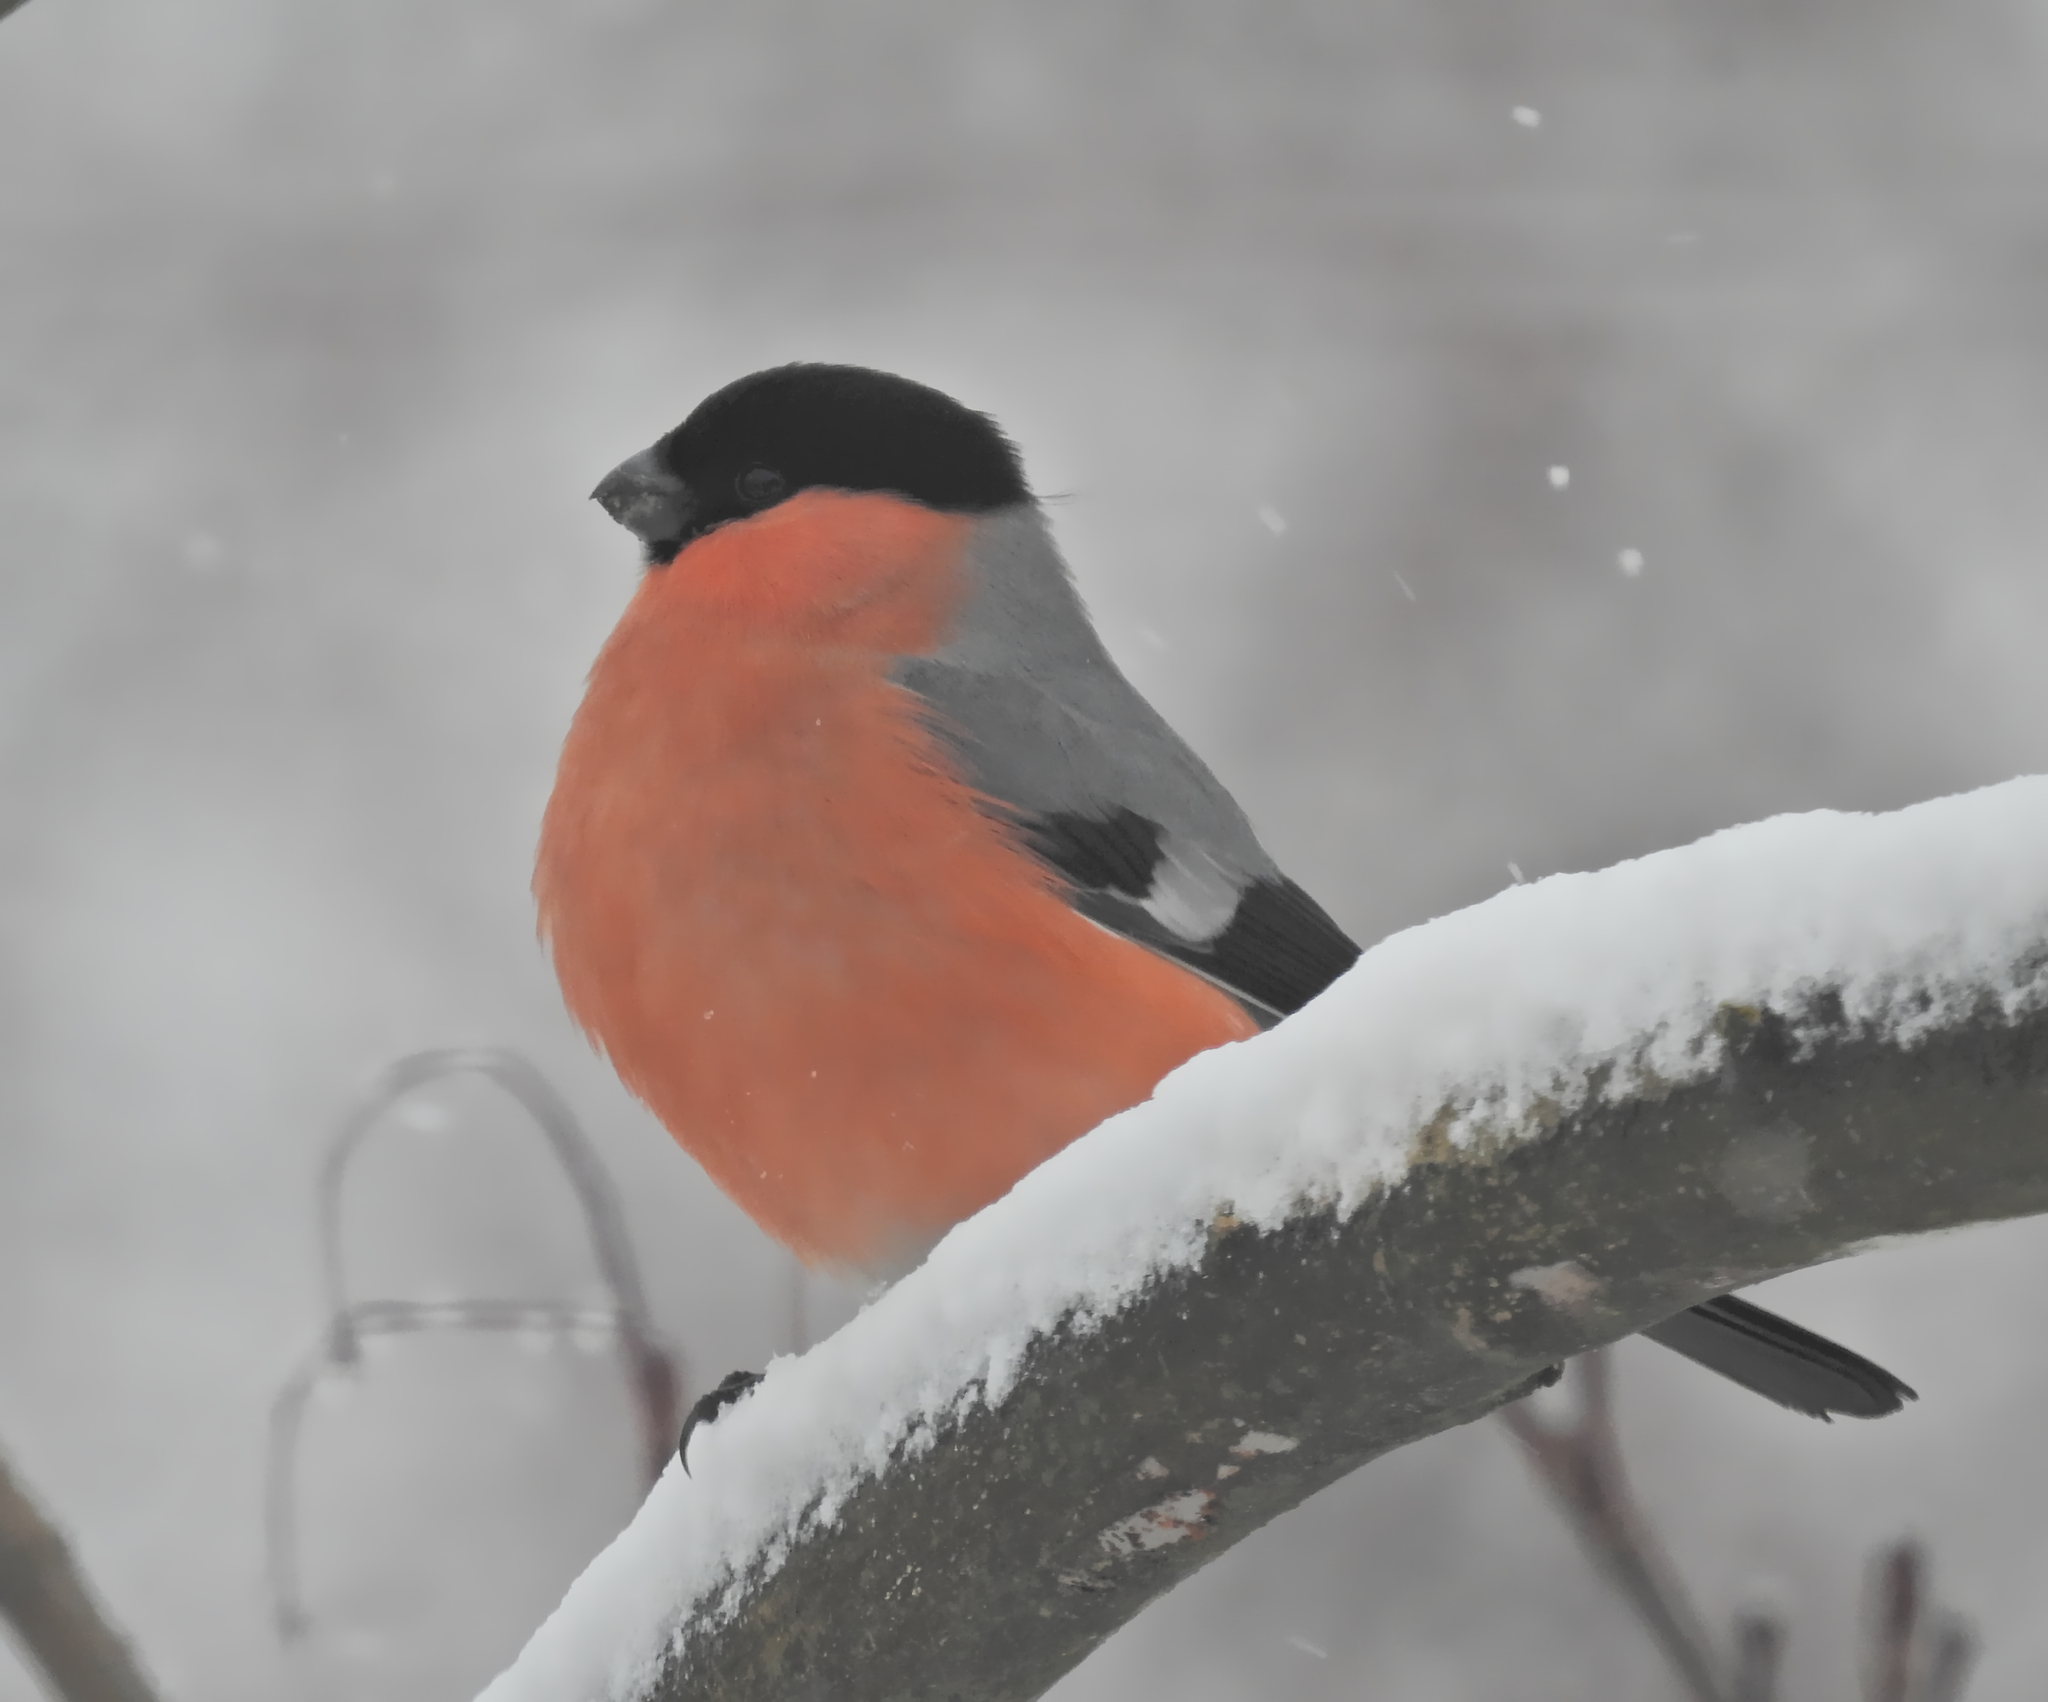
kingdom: Animalia
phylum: Chordata
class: Aves
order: Passeriformes
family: Fringillidae
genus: Pyrrhula
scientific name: Pyrrhula pyrrhula
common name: Eurasian bullfinch
